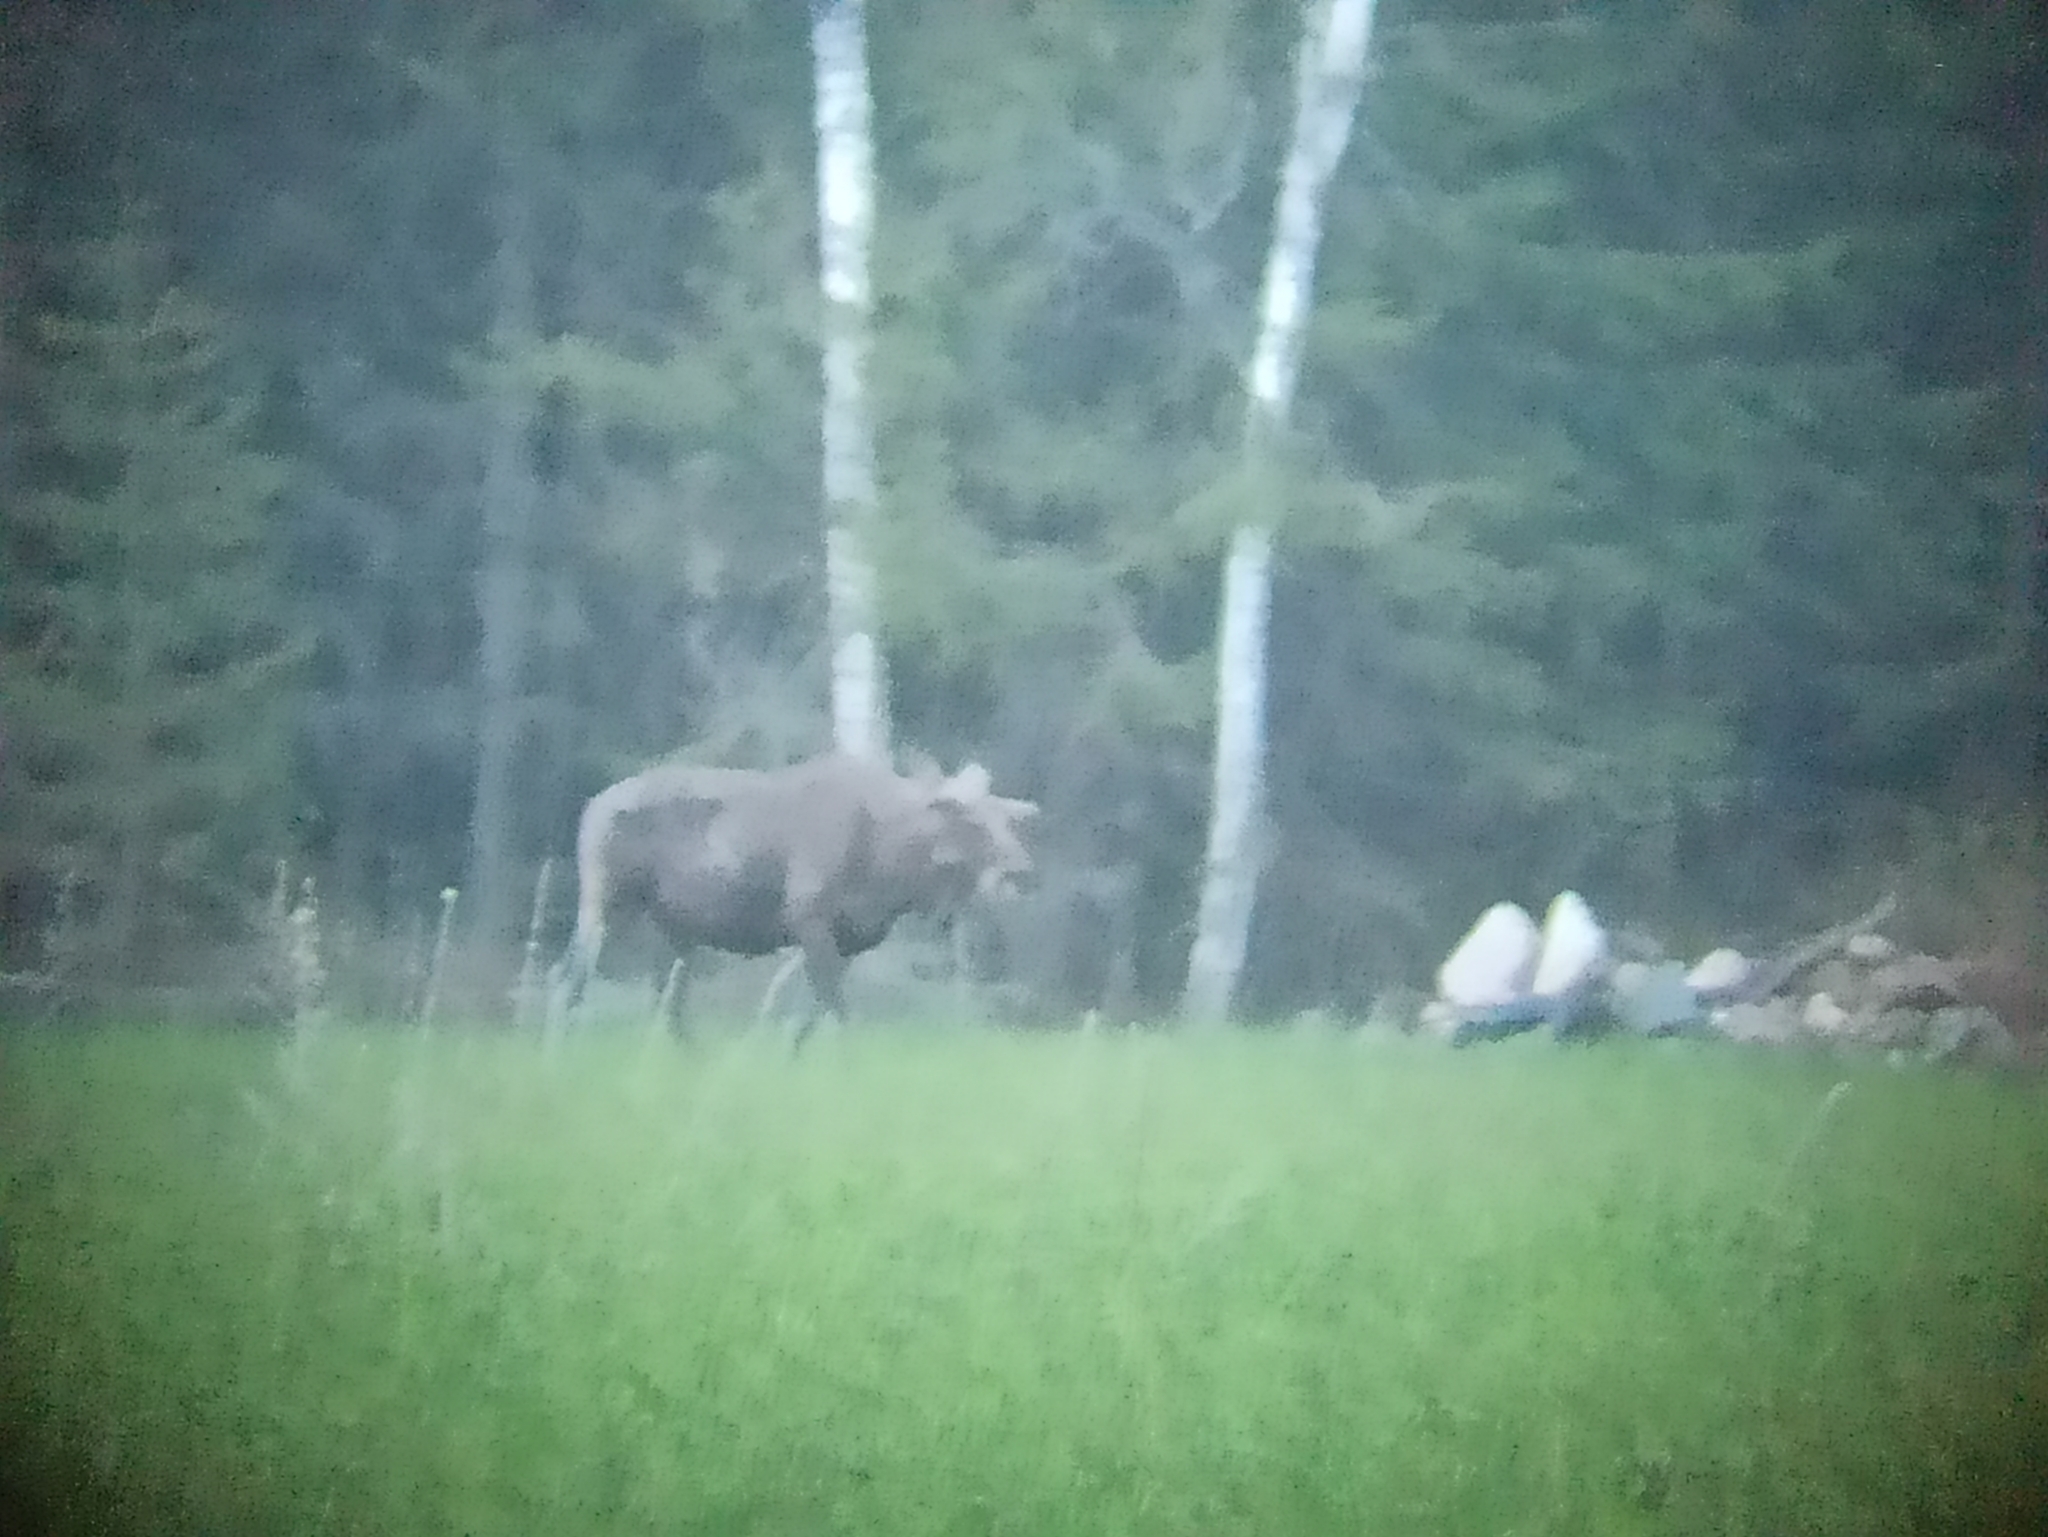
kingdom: Animalia
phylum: Chordata
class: Mammalia
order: Artiodactyla
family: Cervidae
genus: Alces
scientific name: Alces alces
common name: Moose
